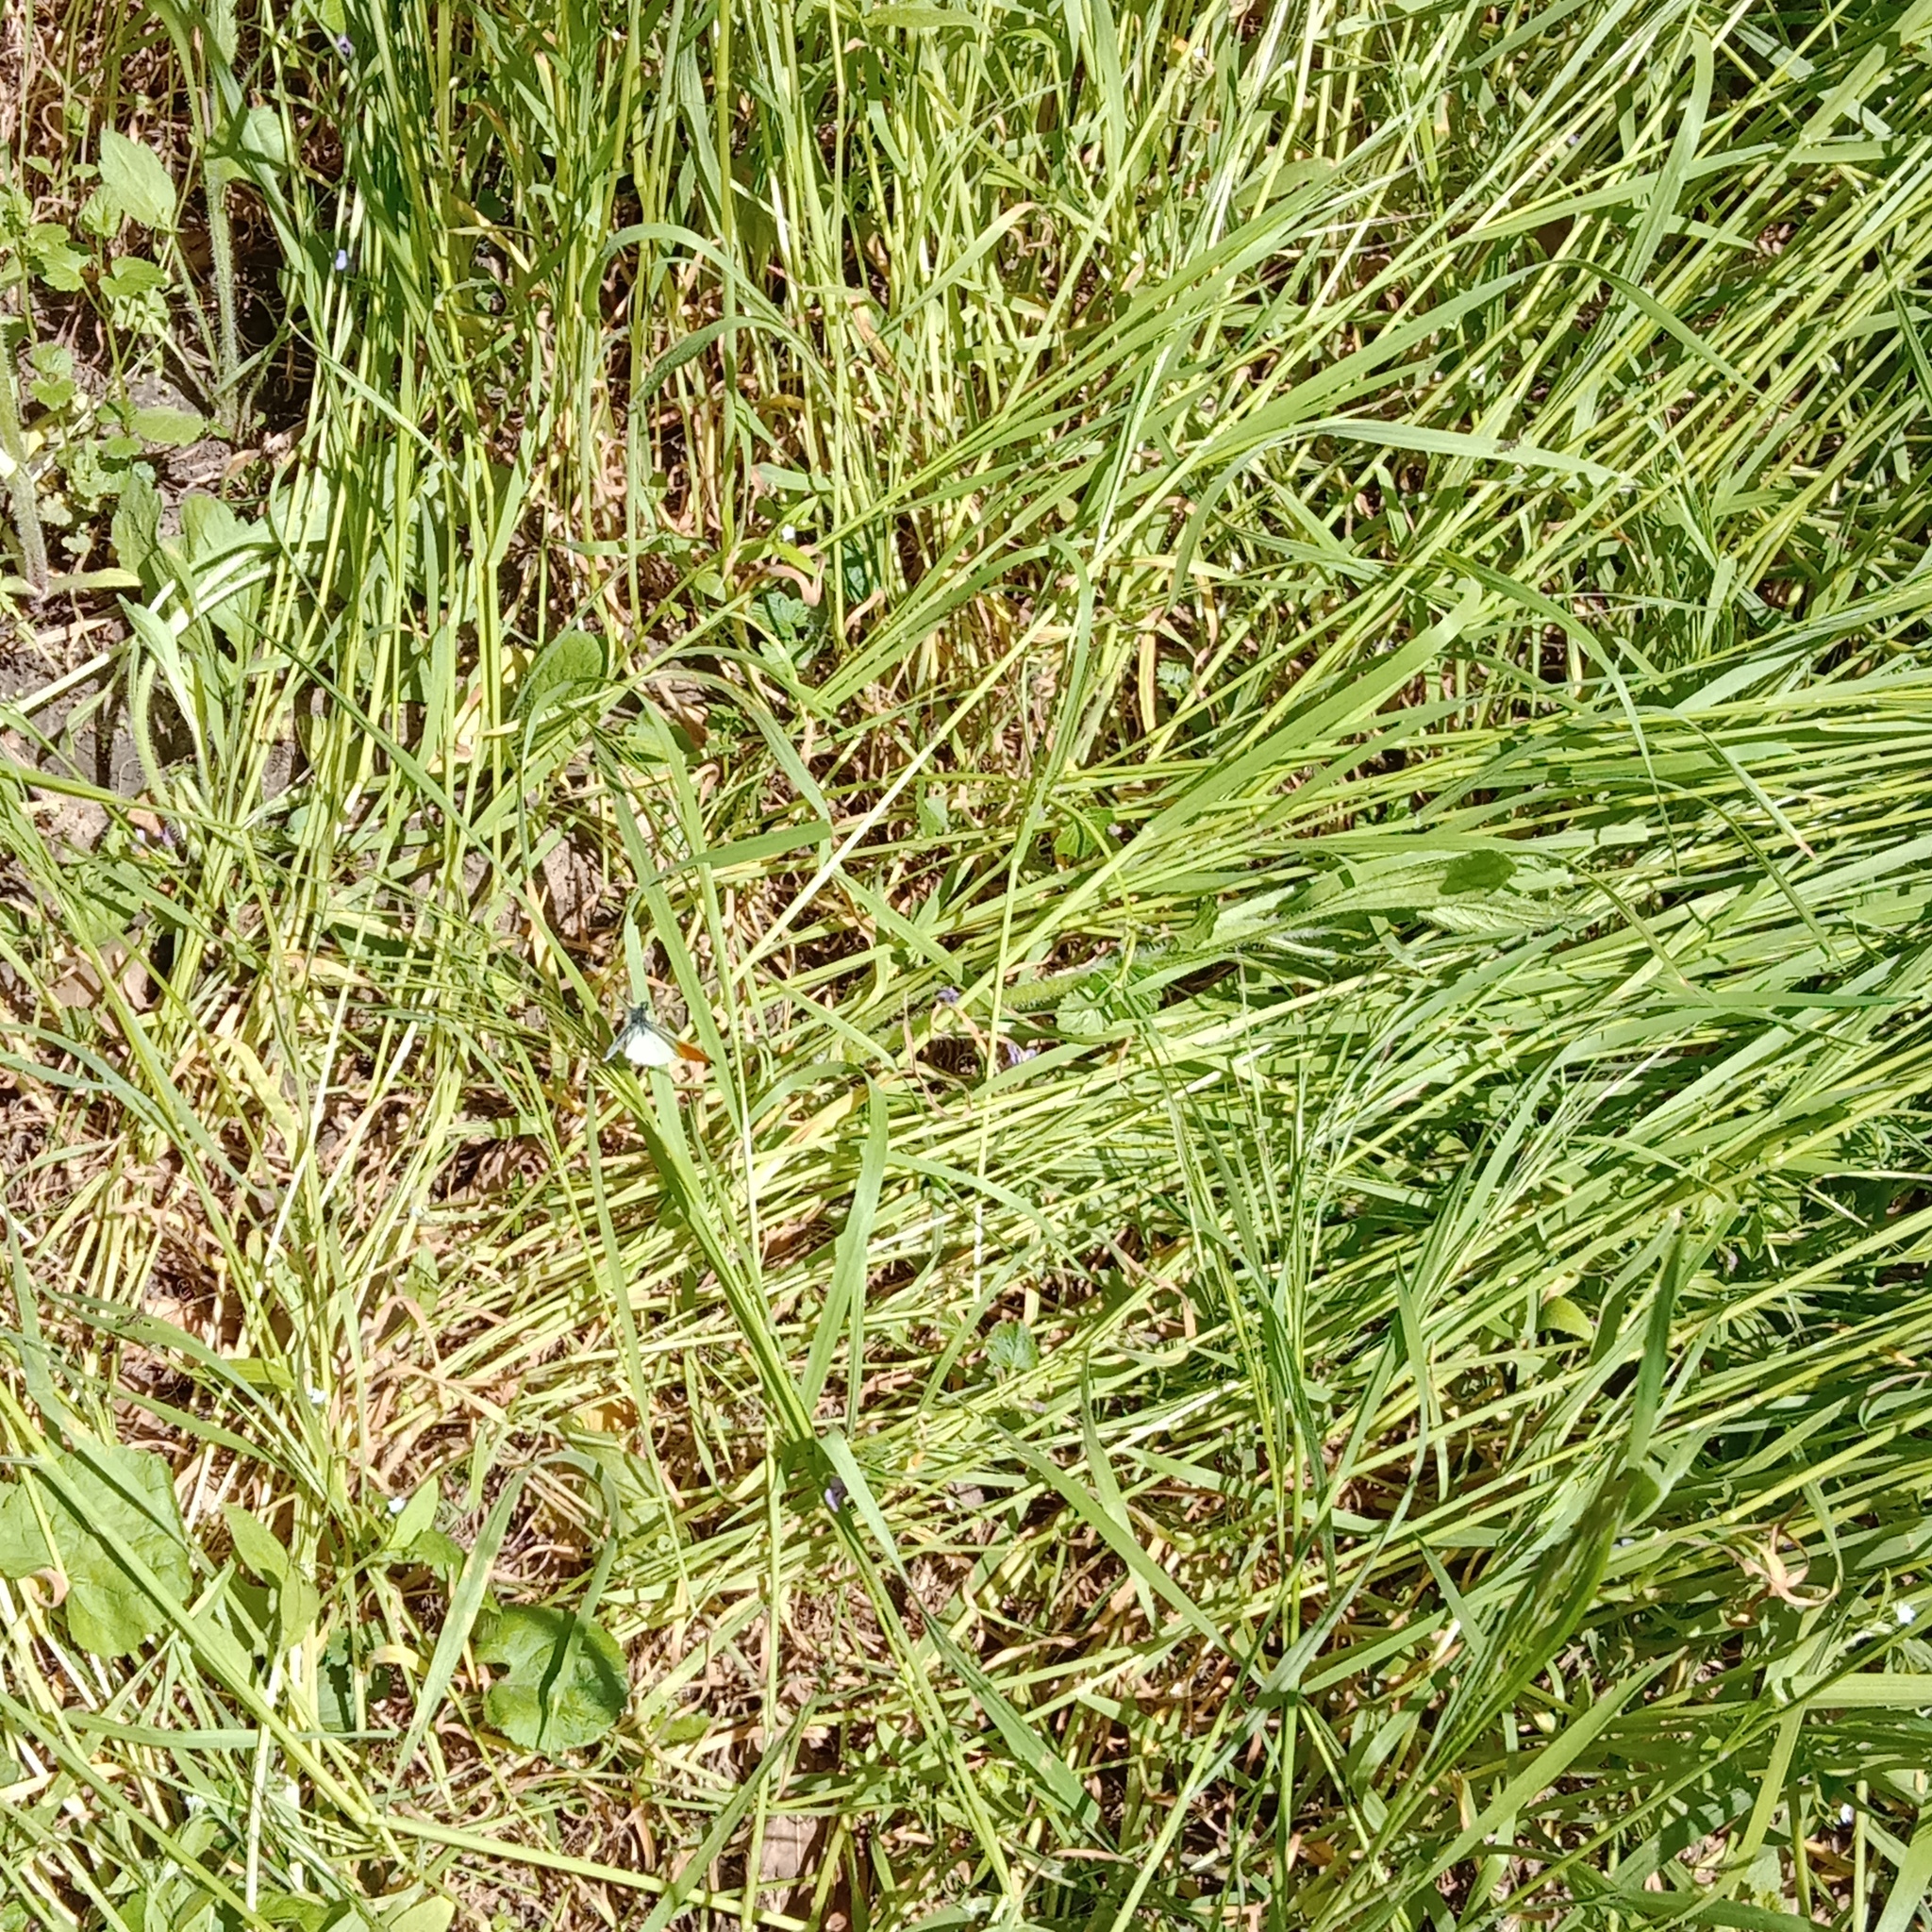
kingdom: Animalia
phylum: Arthropoda
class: Insecta
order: Lepidoptera
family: Pieridae
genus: Anthocharis
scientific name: Anthocharis cardamines
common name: Orange-tip
